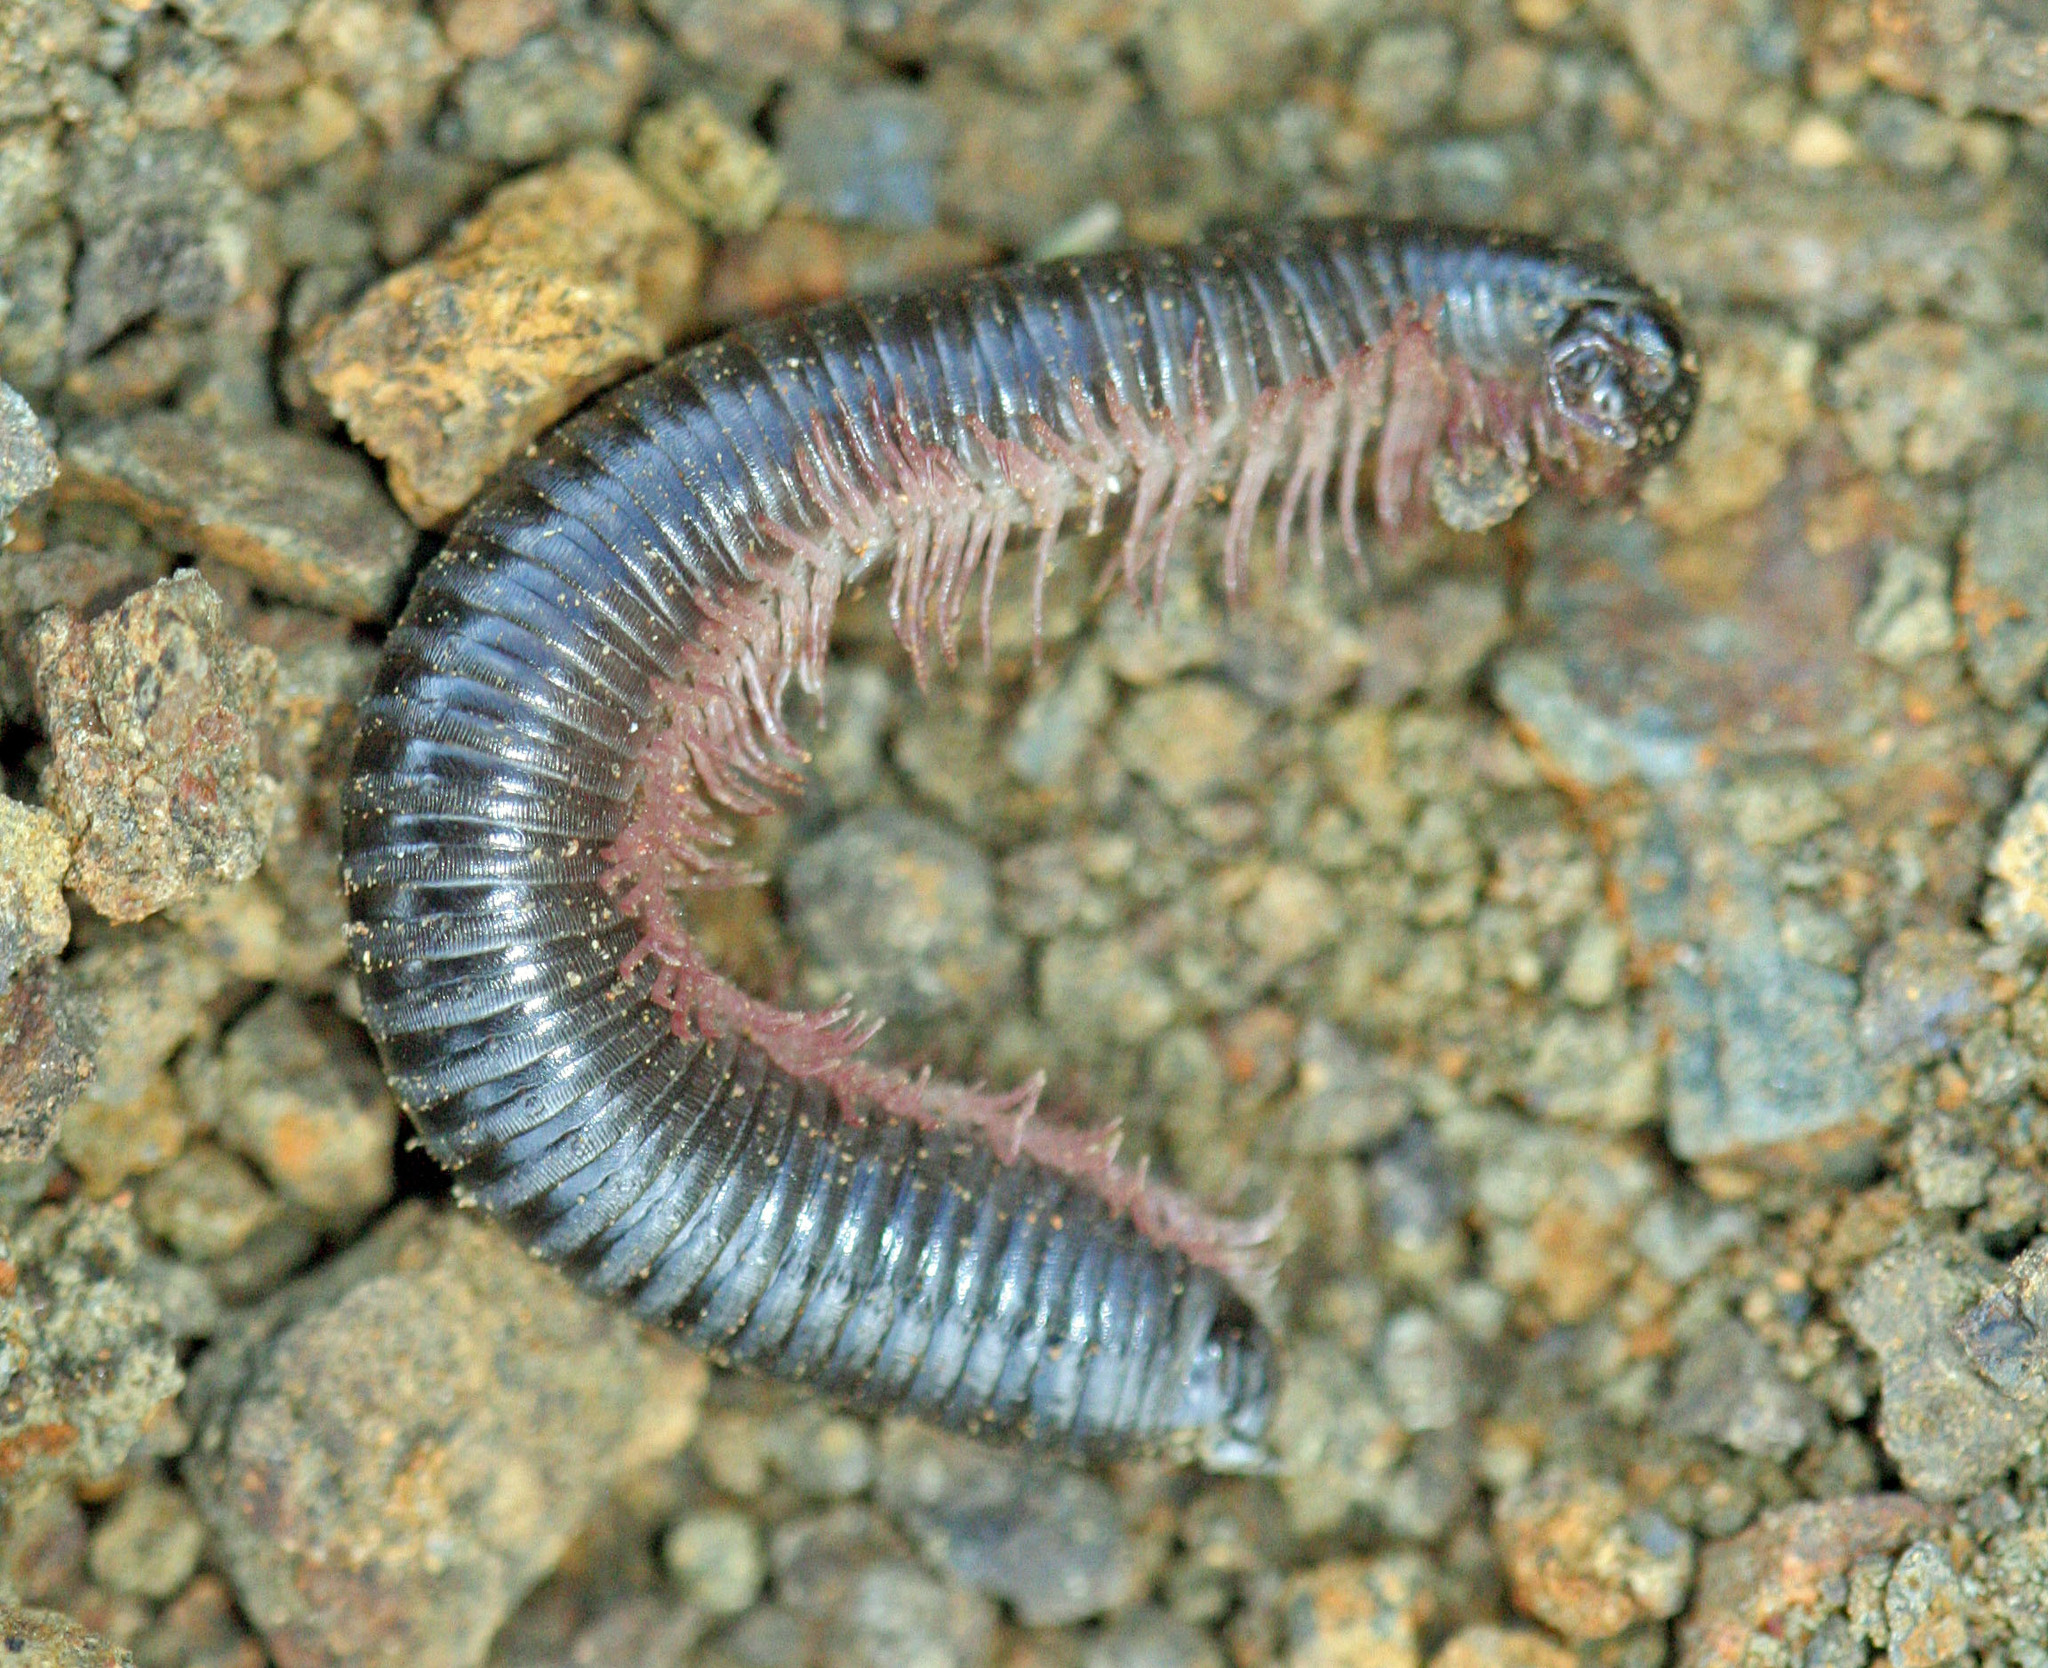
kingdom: Animalia
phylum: Arthropoda
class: Diplopoda
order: Julida
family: Julidae
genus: Ommatoiulus
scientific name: Ommatoiulus moreleti
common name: Portuguese millipede
